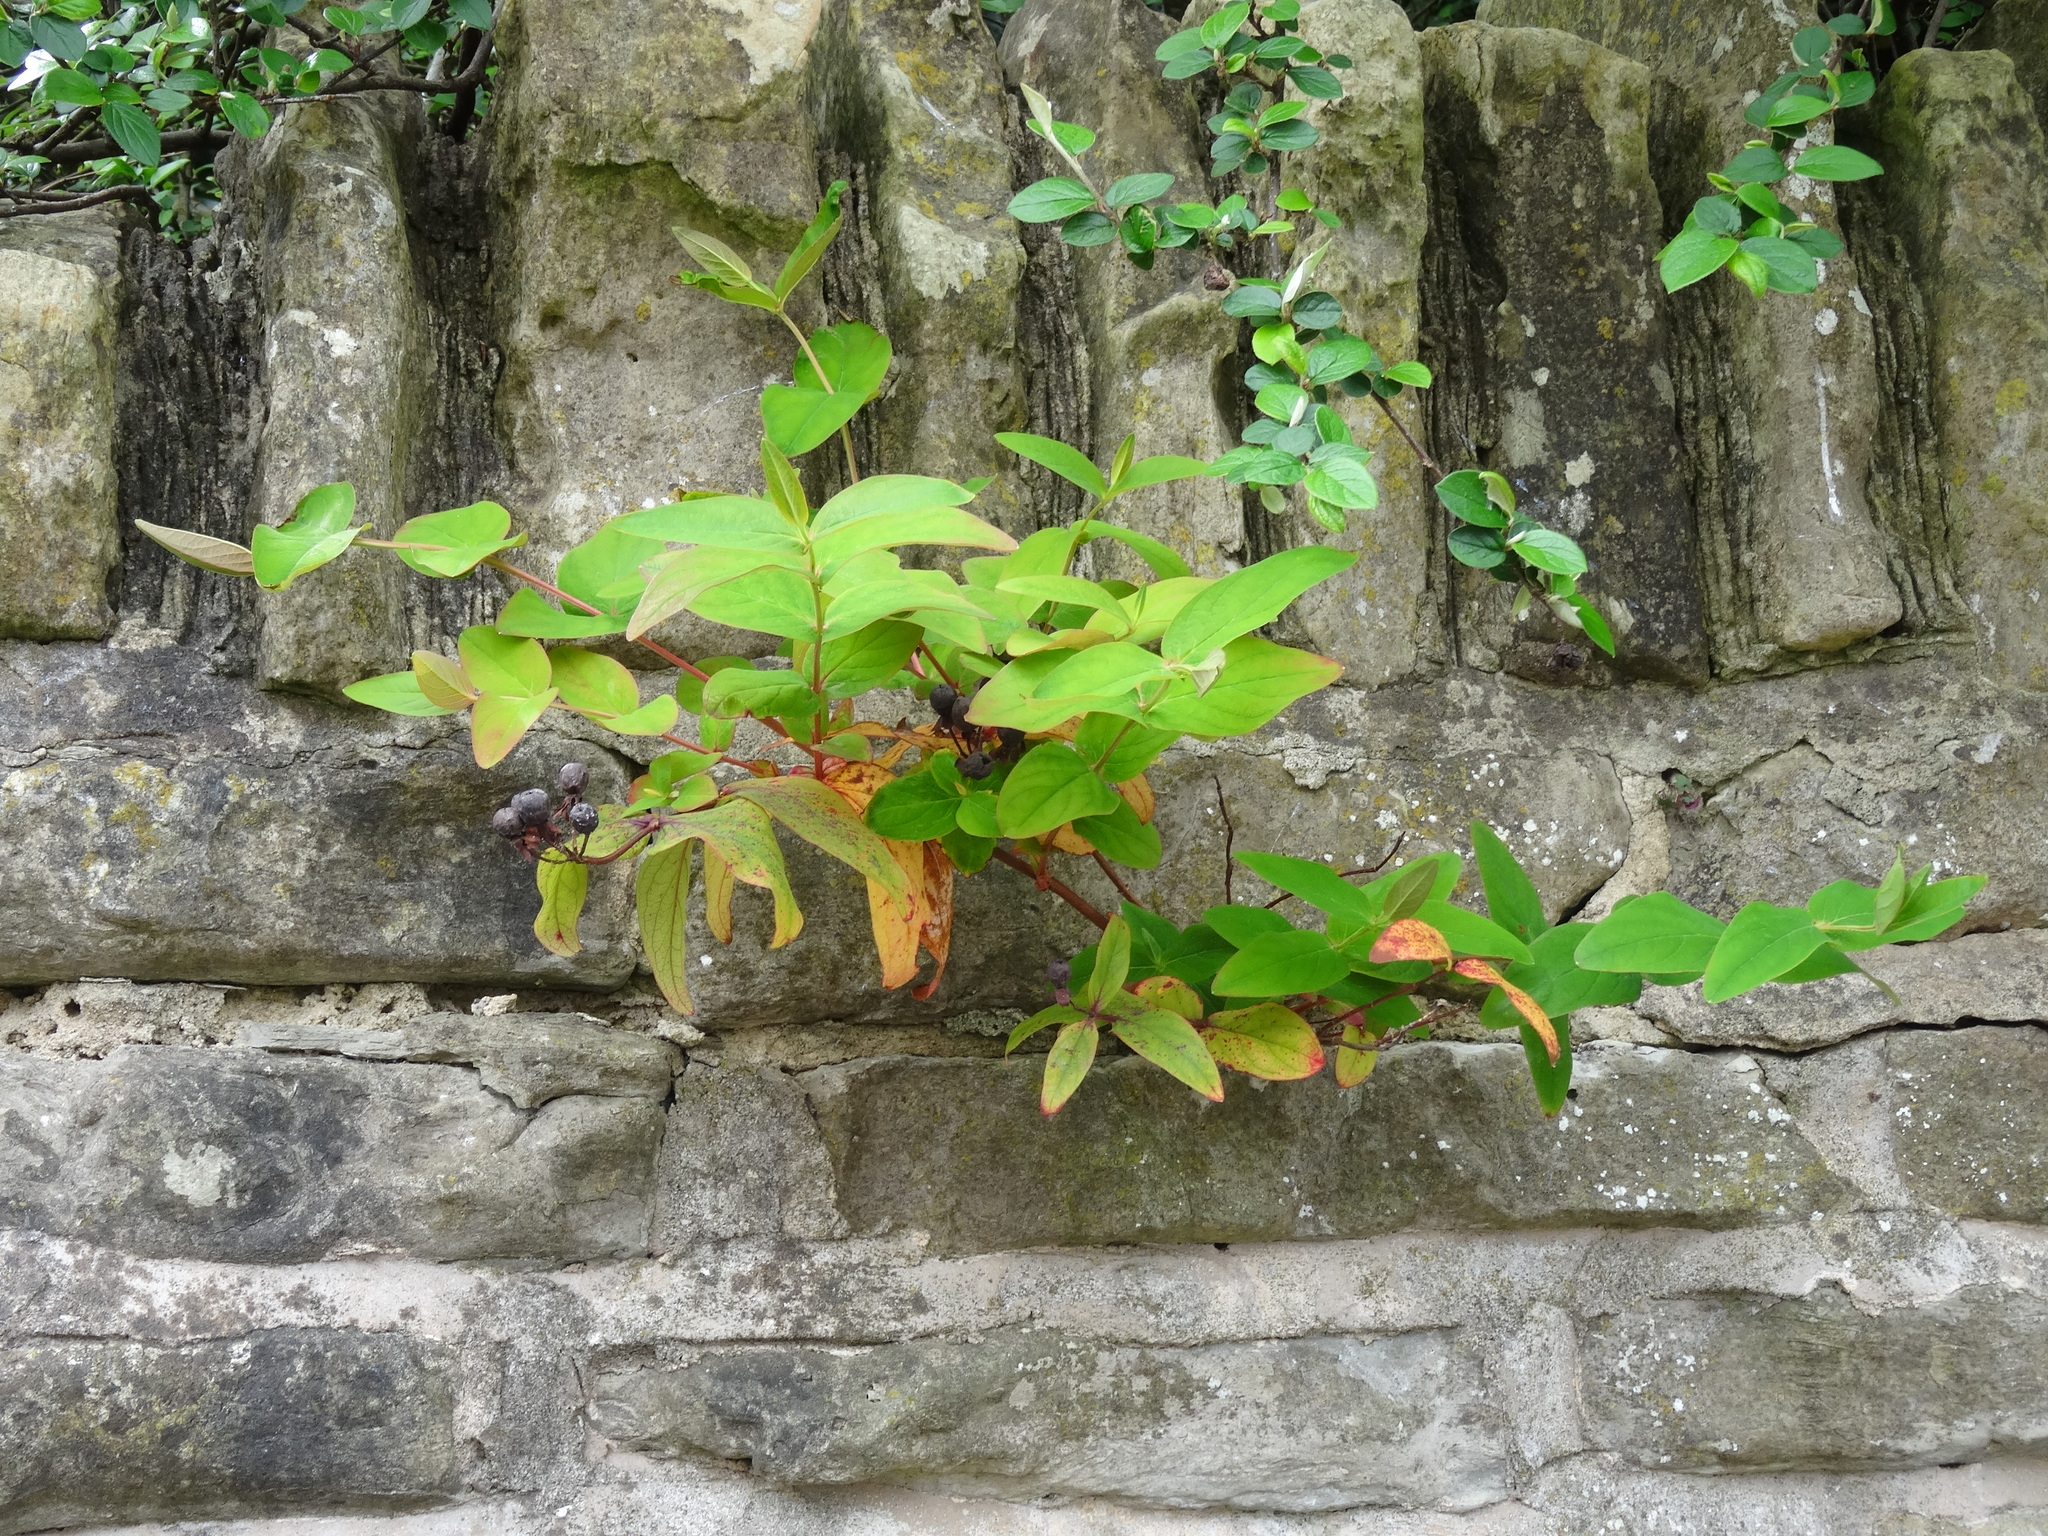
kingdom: Plantae
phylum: Tracheophyta
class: Magnoliopsida
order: Malpighiales
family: Hypericaceae
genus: Hypericum
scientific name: Hypericum androsaemum
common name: Sweet-amber
